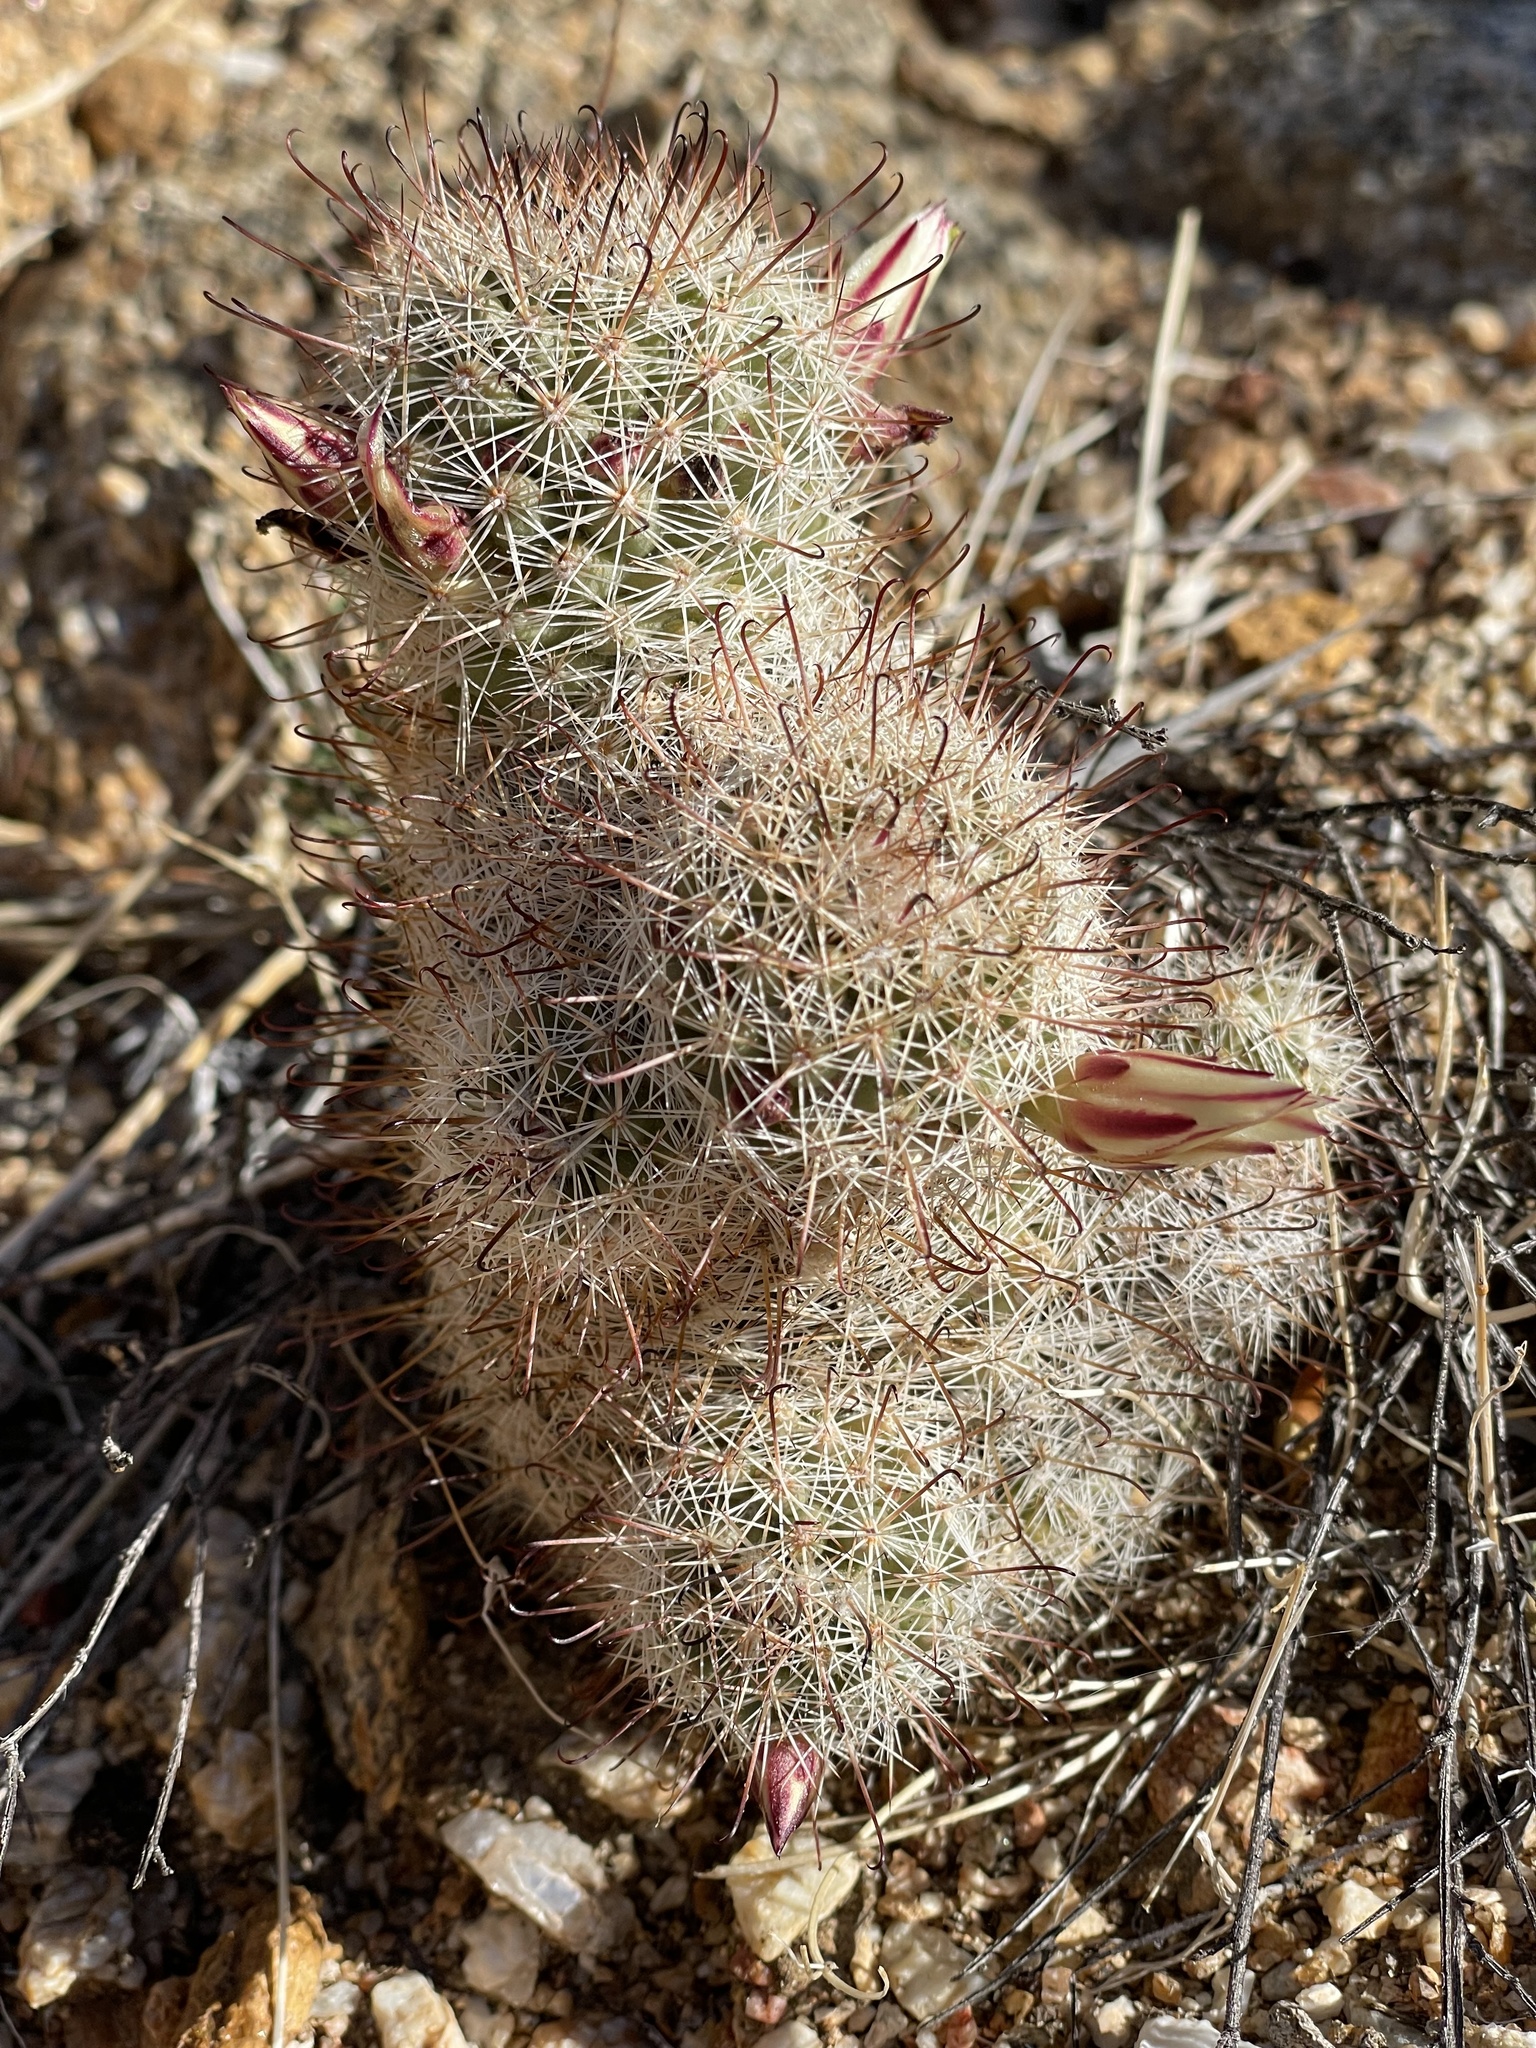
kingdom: Plantae
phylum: Tracheophyta
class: Magnoliopsida
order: Caryophyllales
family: Cactaceae
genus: Cochemiea
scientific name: Cochemiea dioica
